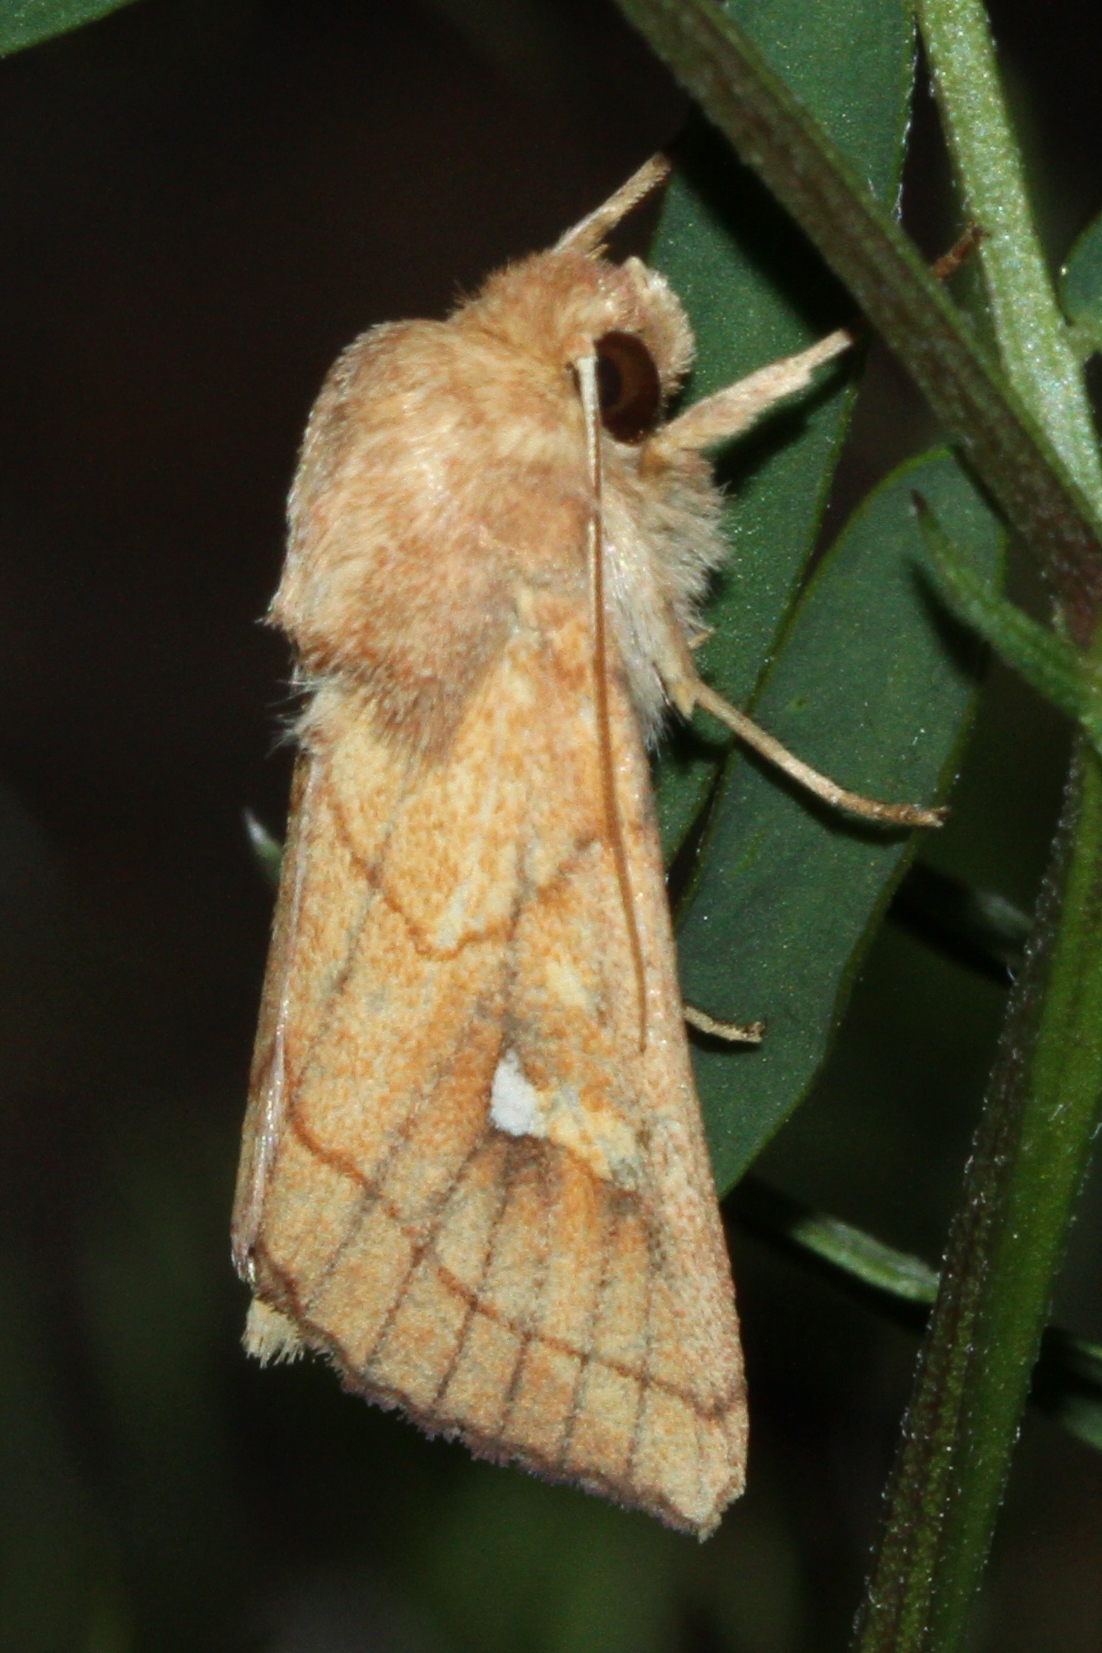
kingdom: Animalia
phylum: Arthropoda
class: Insecta
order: Lepidoptera
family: Noctuidae
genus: Mythimna
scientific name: Mythimna conigera
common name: Brown-line bright-eye
